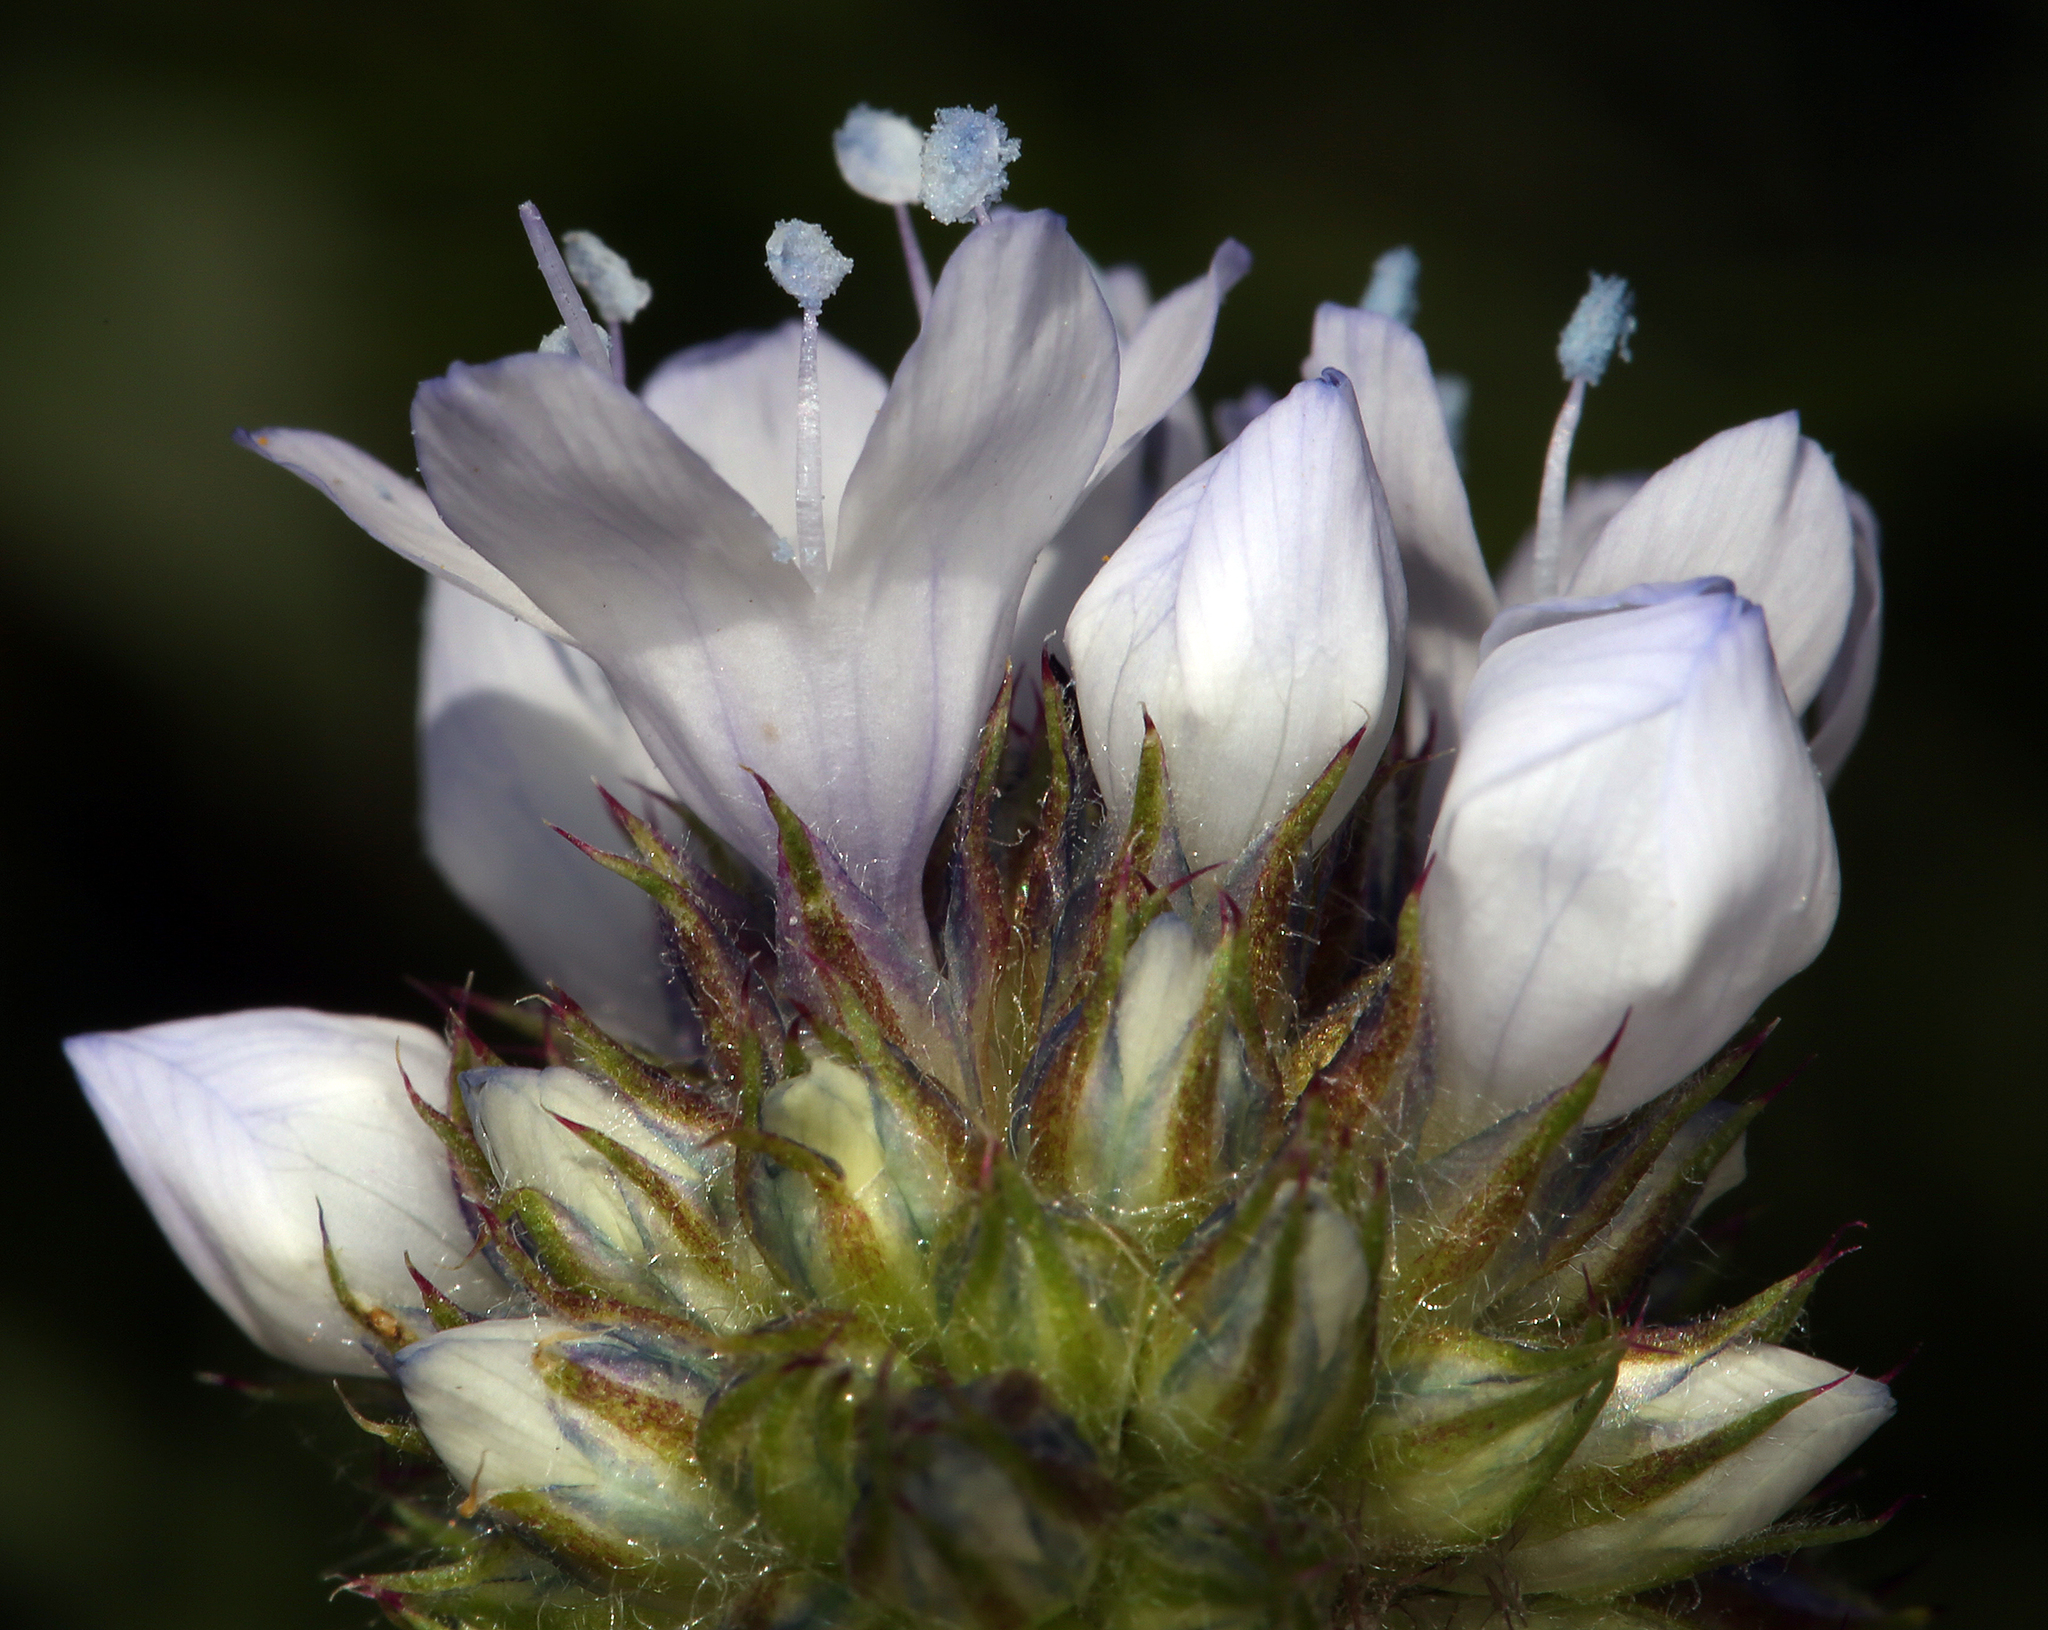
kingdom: Plantae
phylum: Tracheophyta
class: Magnoliopsida
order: Ericales
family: Polemoniaceae
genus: Gilia
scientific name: Gilia capitata
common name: Bluehead gilia
